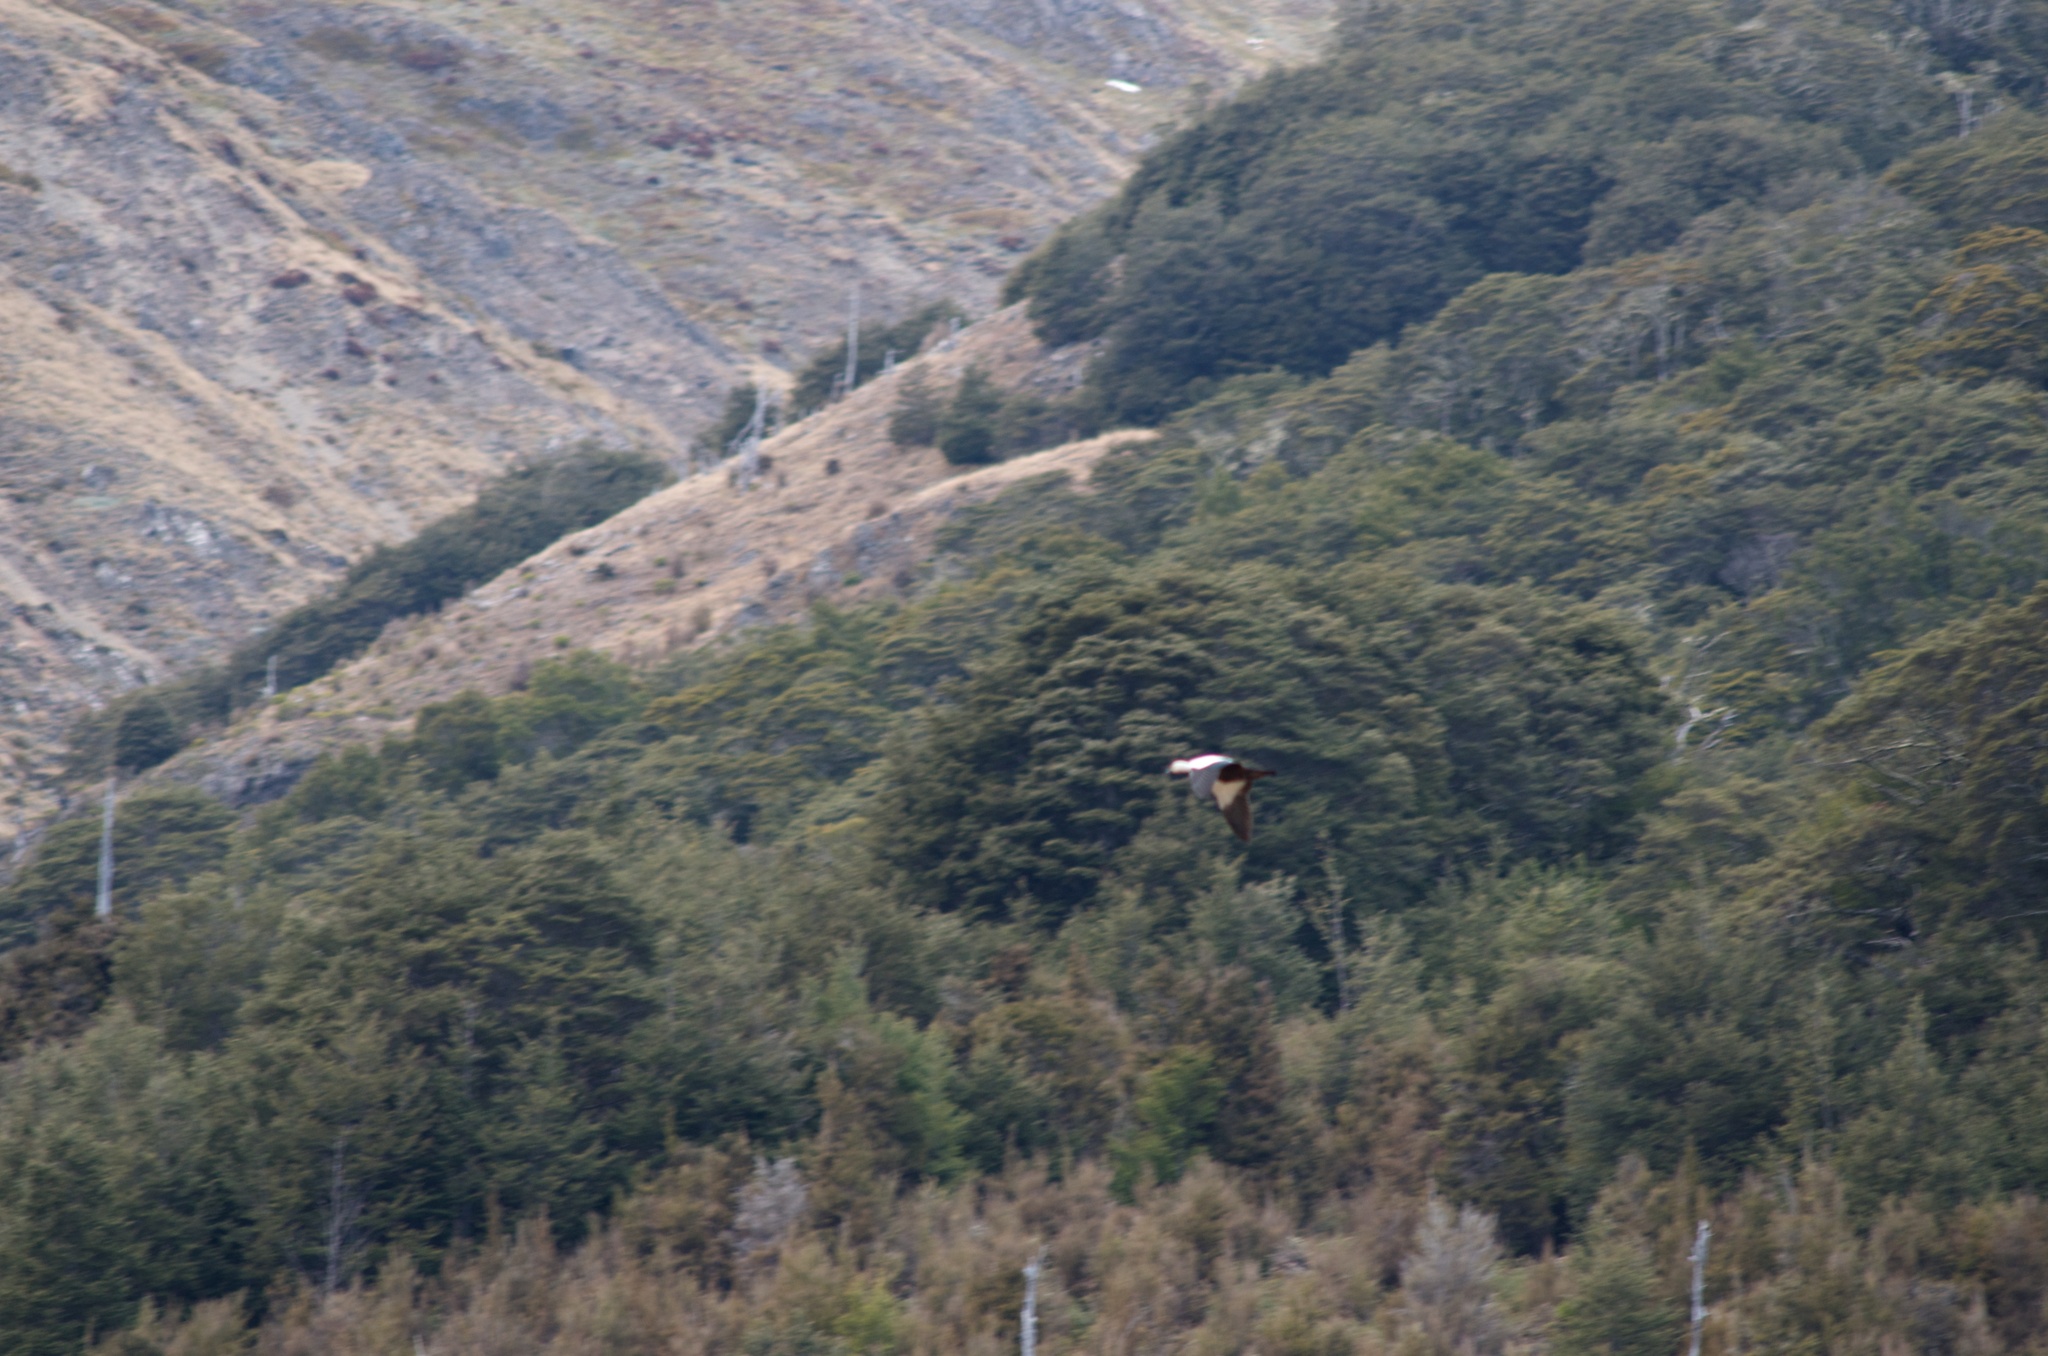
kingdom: Animalia
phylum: Chordata
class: Aves
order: Anseriformes
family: Anatidae
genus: Tadorna
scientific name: Tadorna variegata
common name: Paradise shelduck
